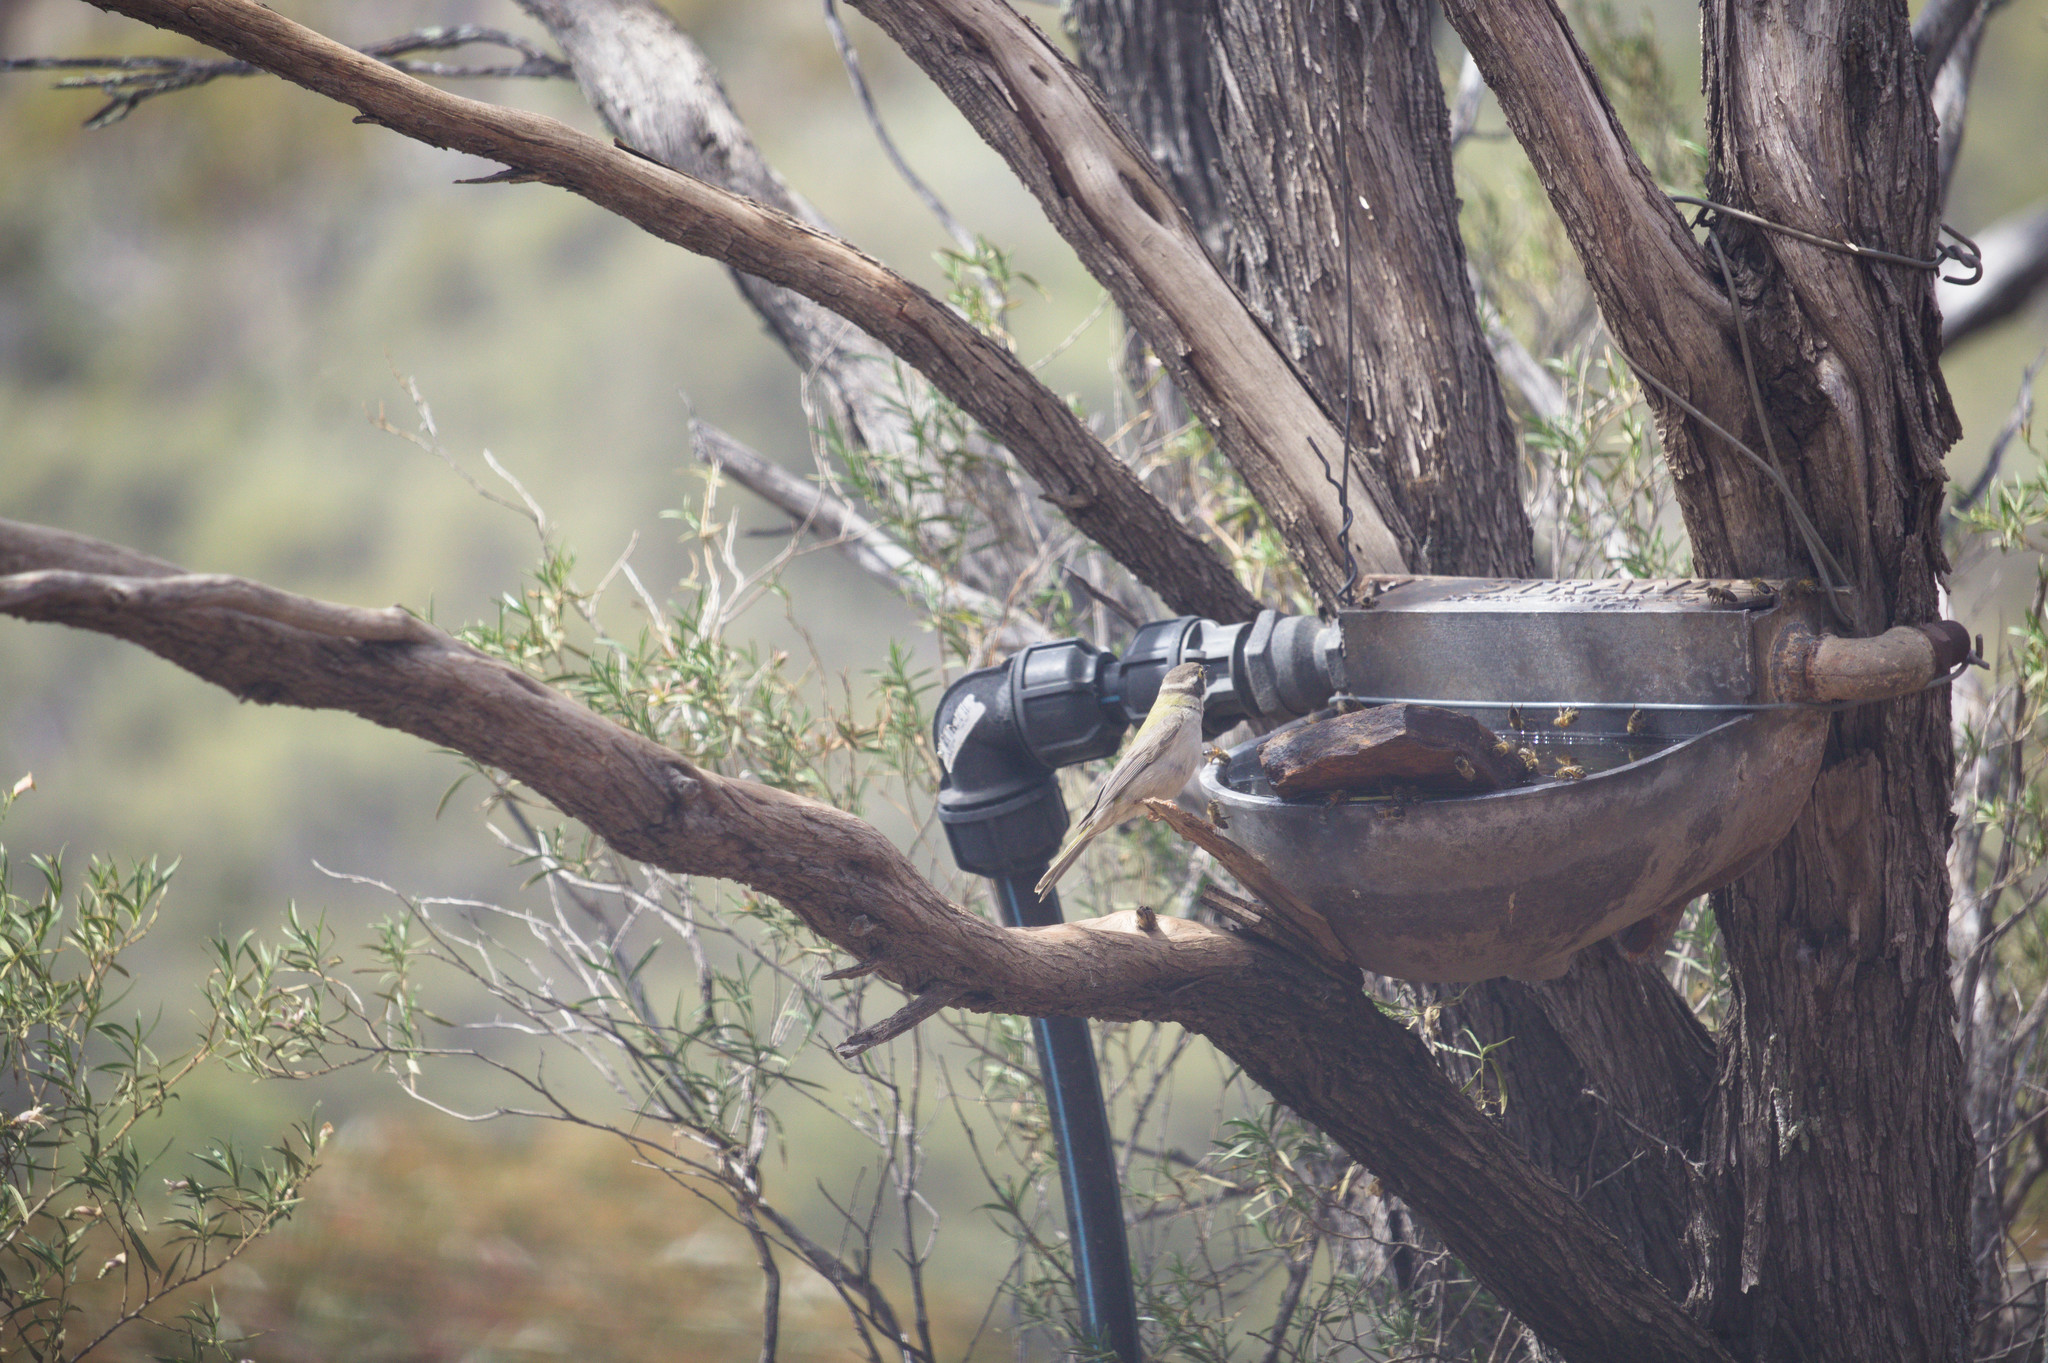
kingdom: Animalia
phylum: Chordata
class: Aves
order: Passeriformes
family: Meliphagidae
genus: Melithreptus
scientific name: Melithreptus brevirostris
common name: Brown-headed honeyeater
